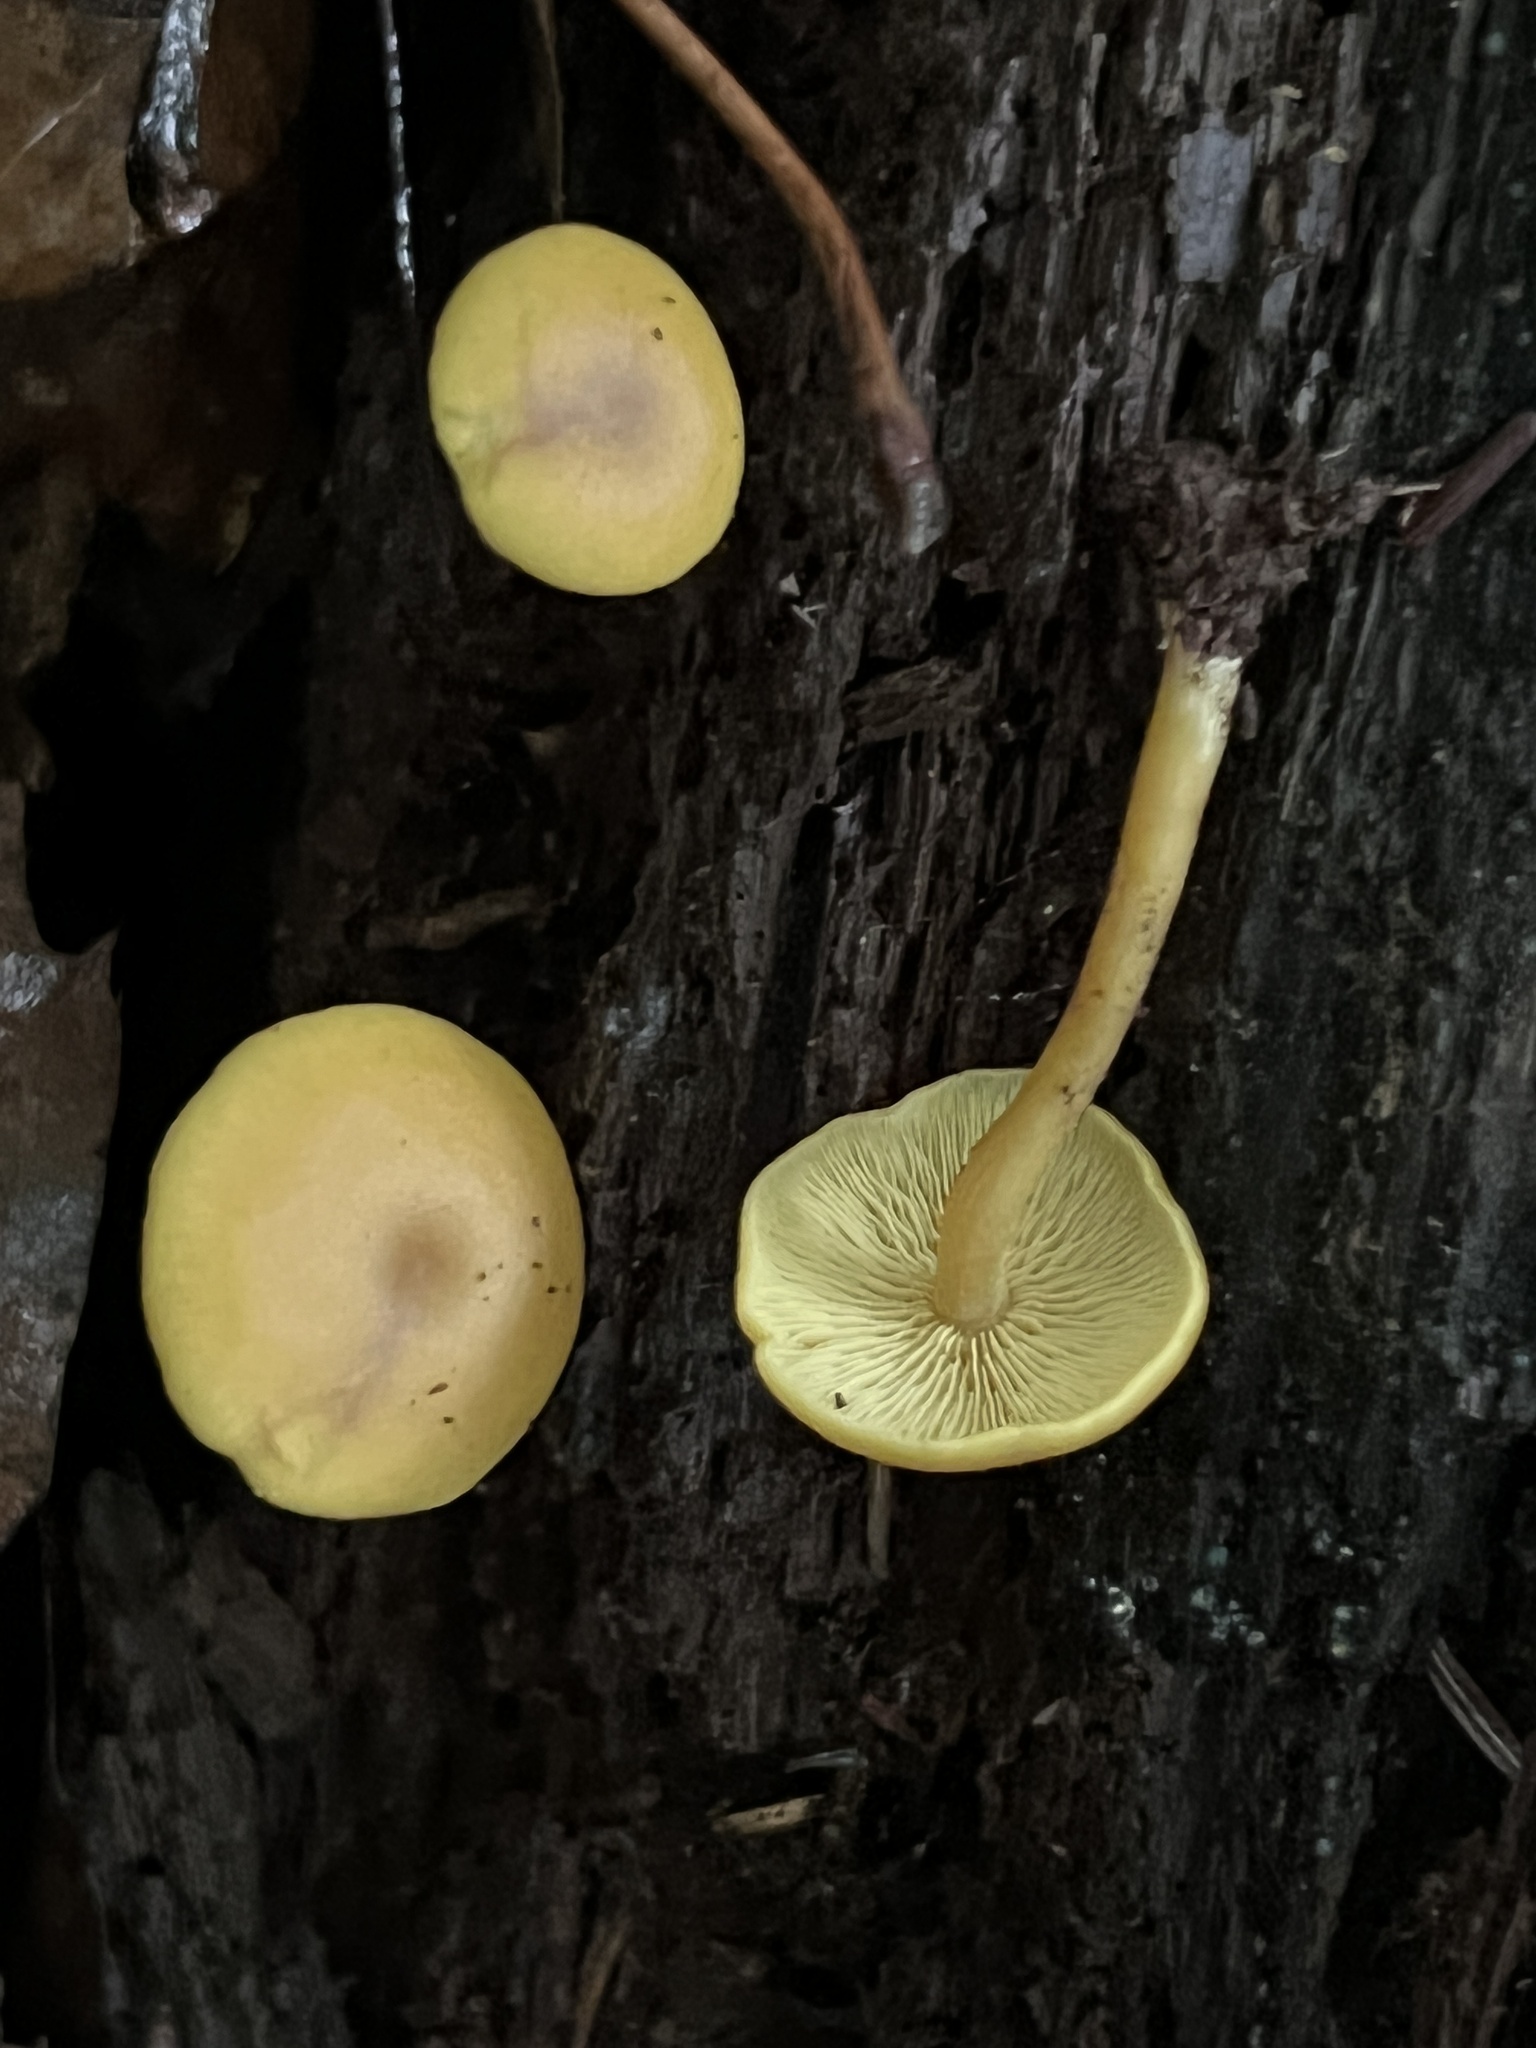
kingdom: Fungi
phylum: Basidiomycota
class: Agaricomycetes
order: Agaricales
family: Callistosporiaceae
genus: Callistosporium
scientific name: Callistosporium luteo-olivaceum
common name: Olive lute
